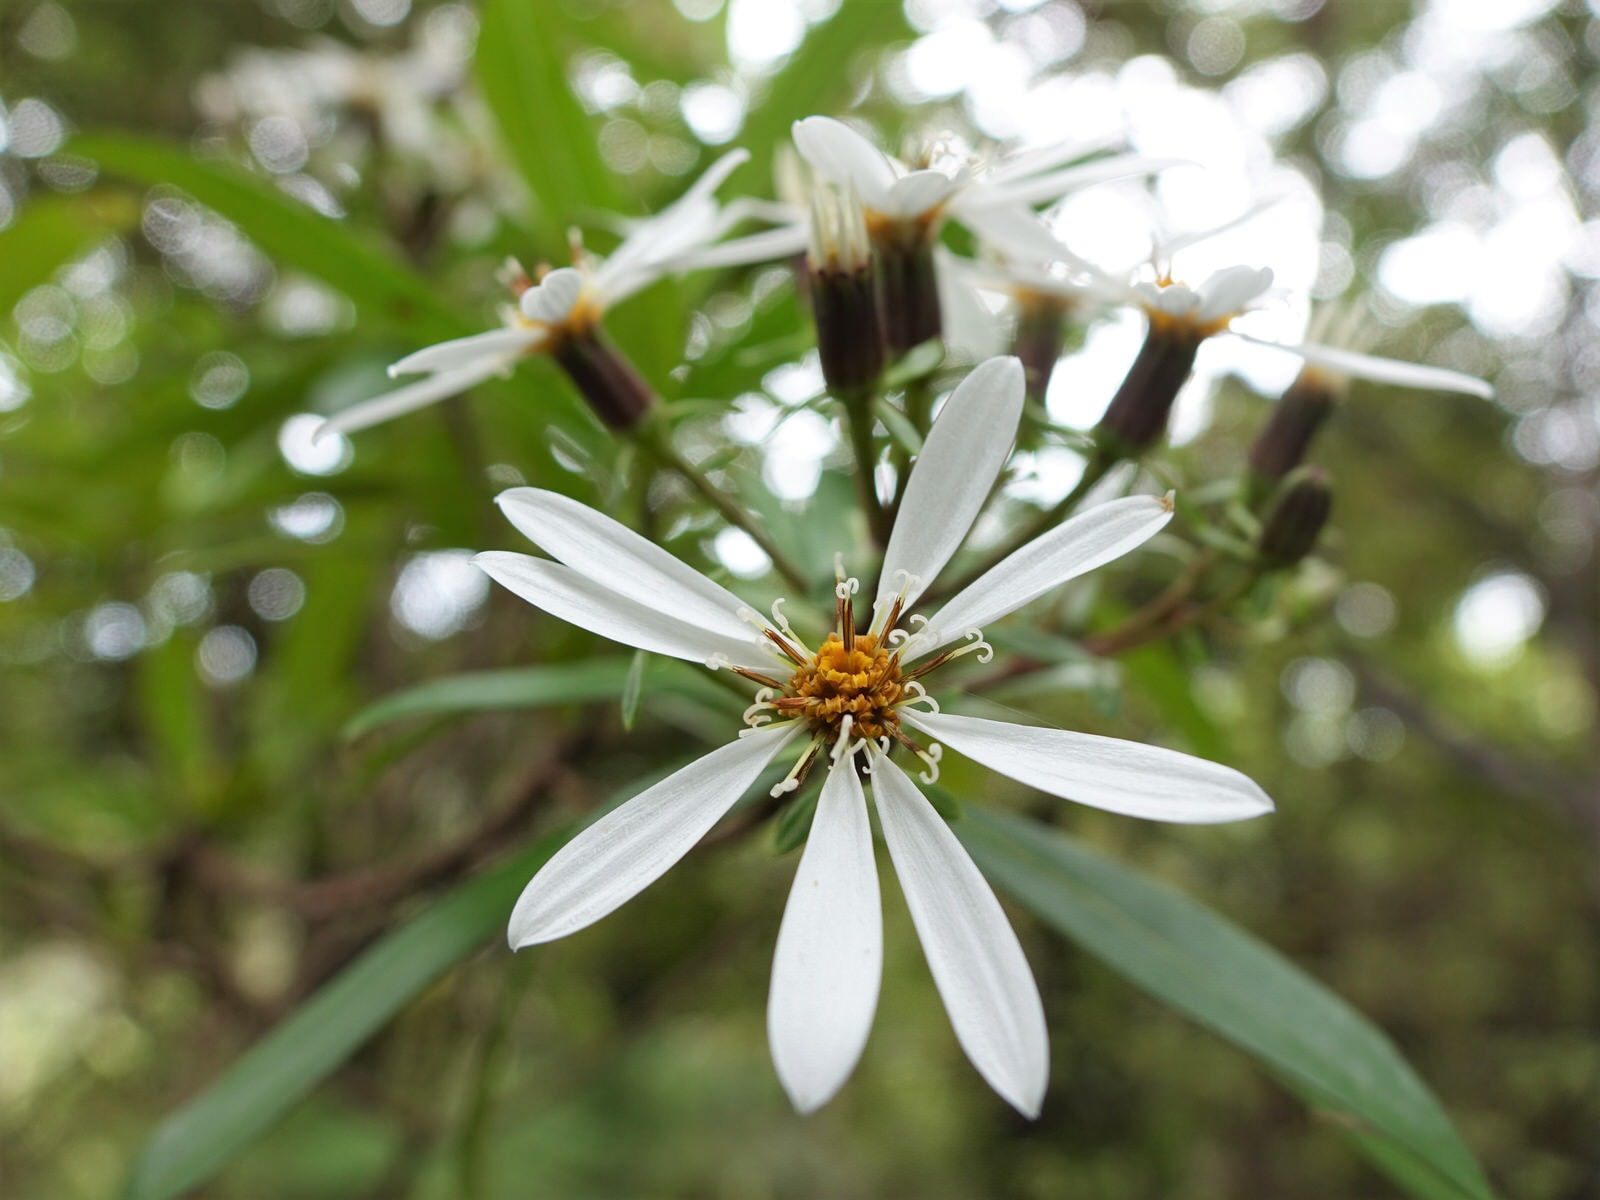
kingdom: Plantae
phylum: Tracheophyta
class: Magnoliopsida
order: Asterales
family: Asteraceae
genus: Brachyglottis
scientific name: Brachyglottis kirkii
